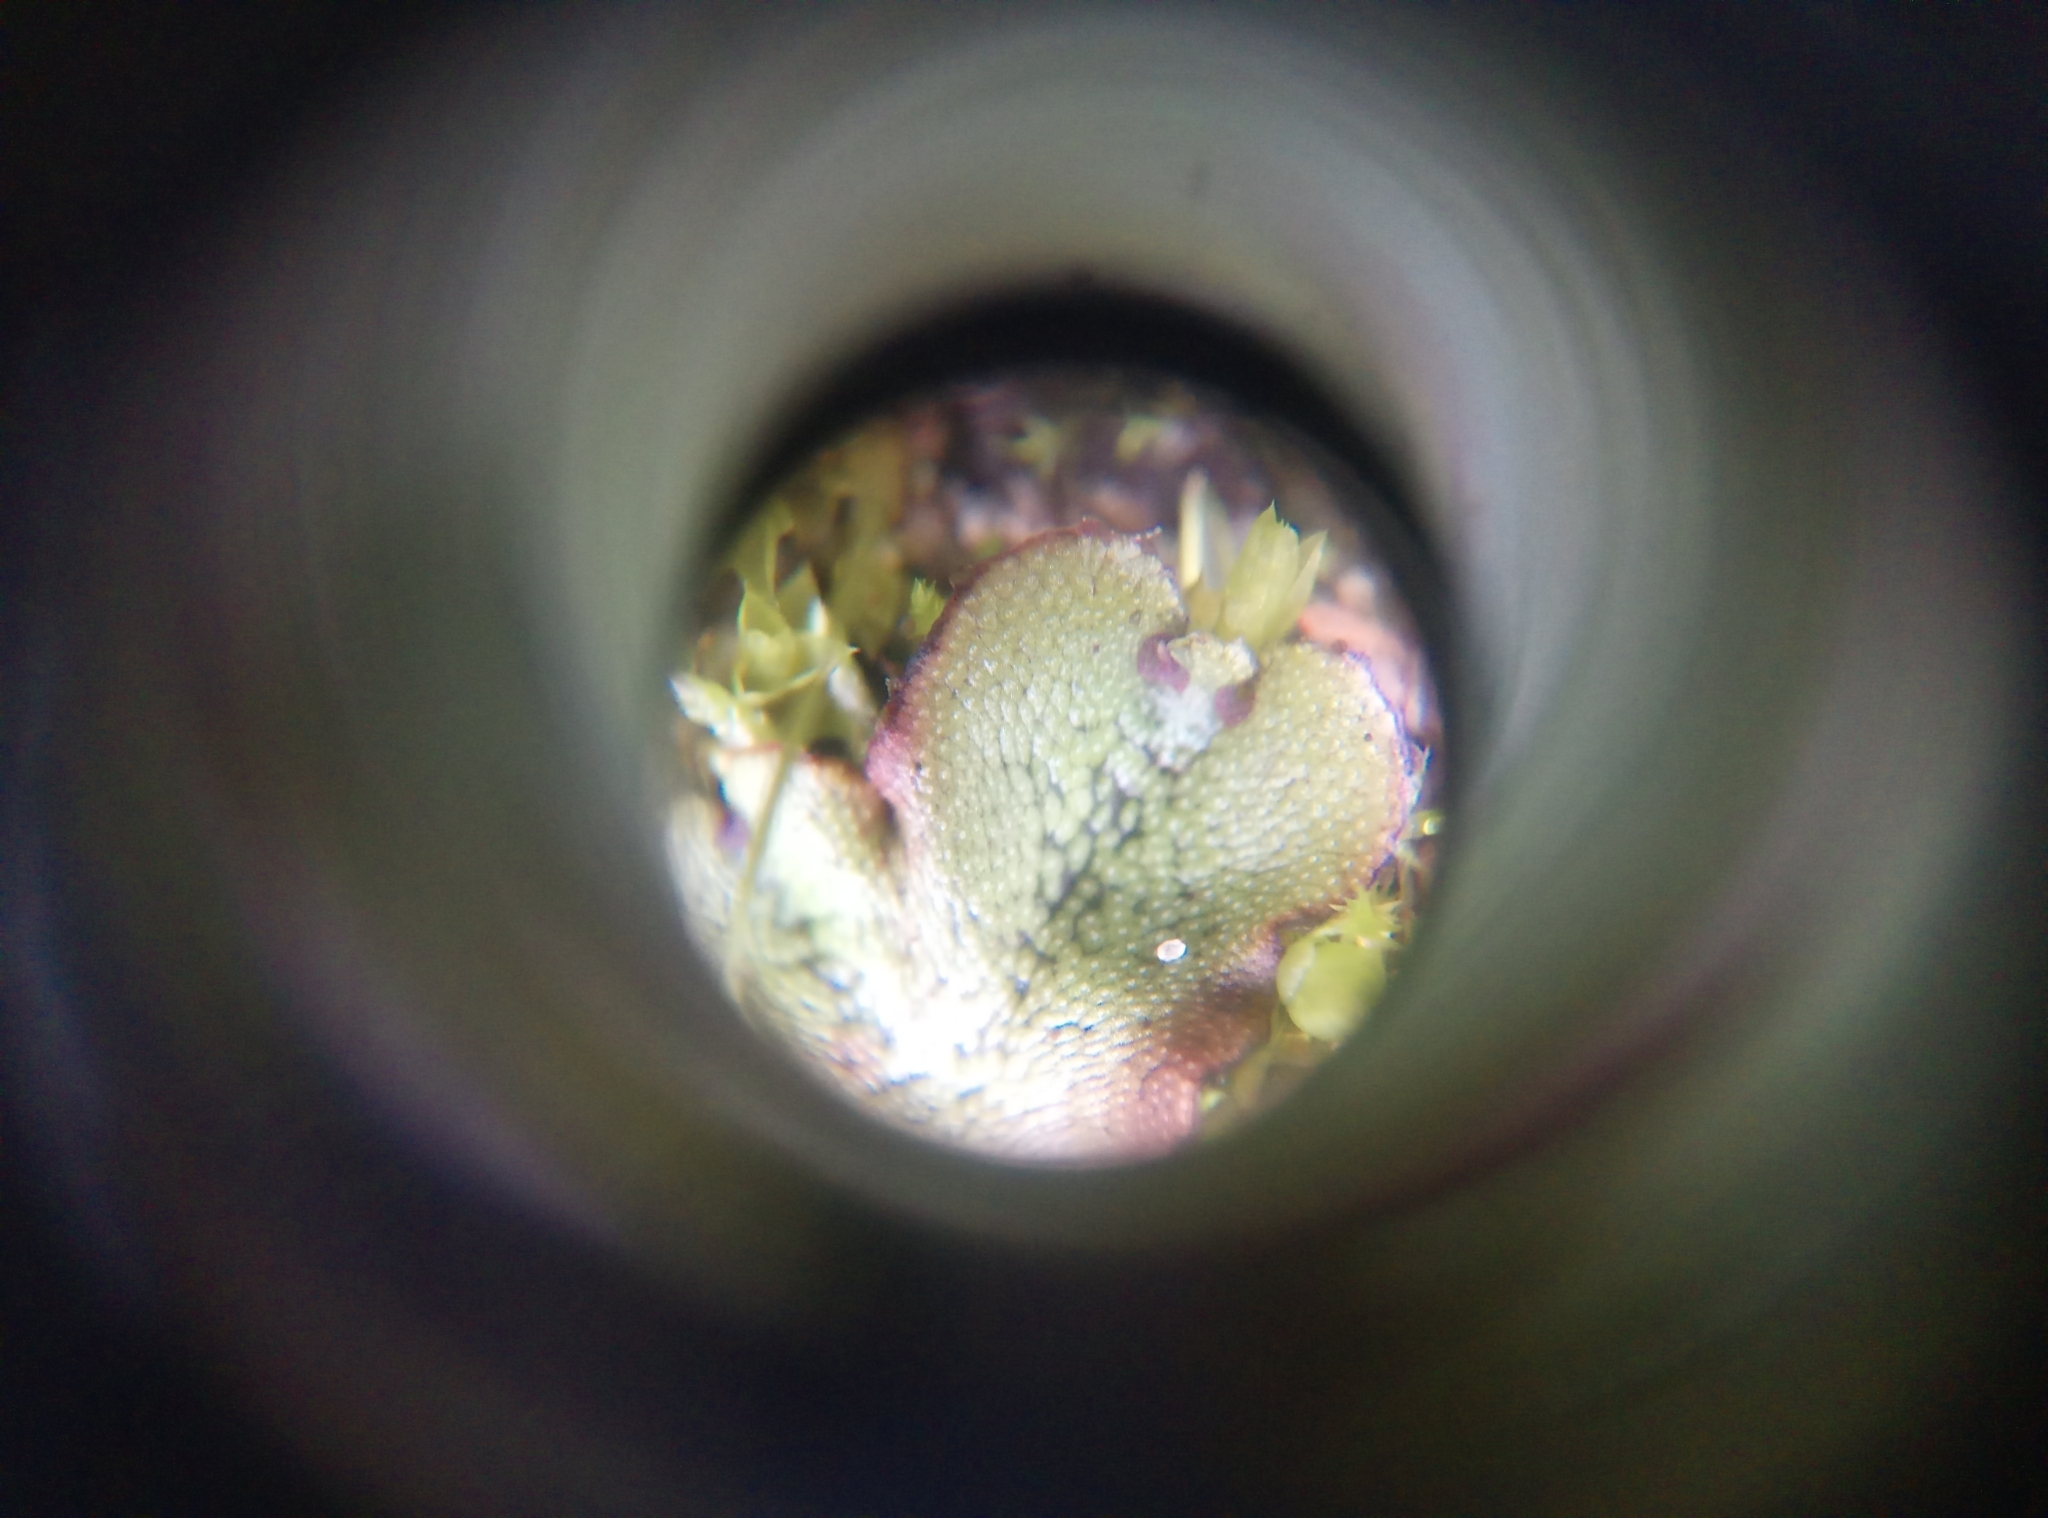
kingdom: Plantae
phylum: Marchantiophyta
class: Marchantiopsida
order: Marchantiales
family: Marchantiaceae
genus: Marchantia
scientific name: Marchantia polymorpha
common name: Common liverwort
